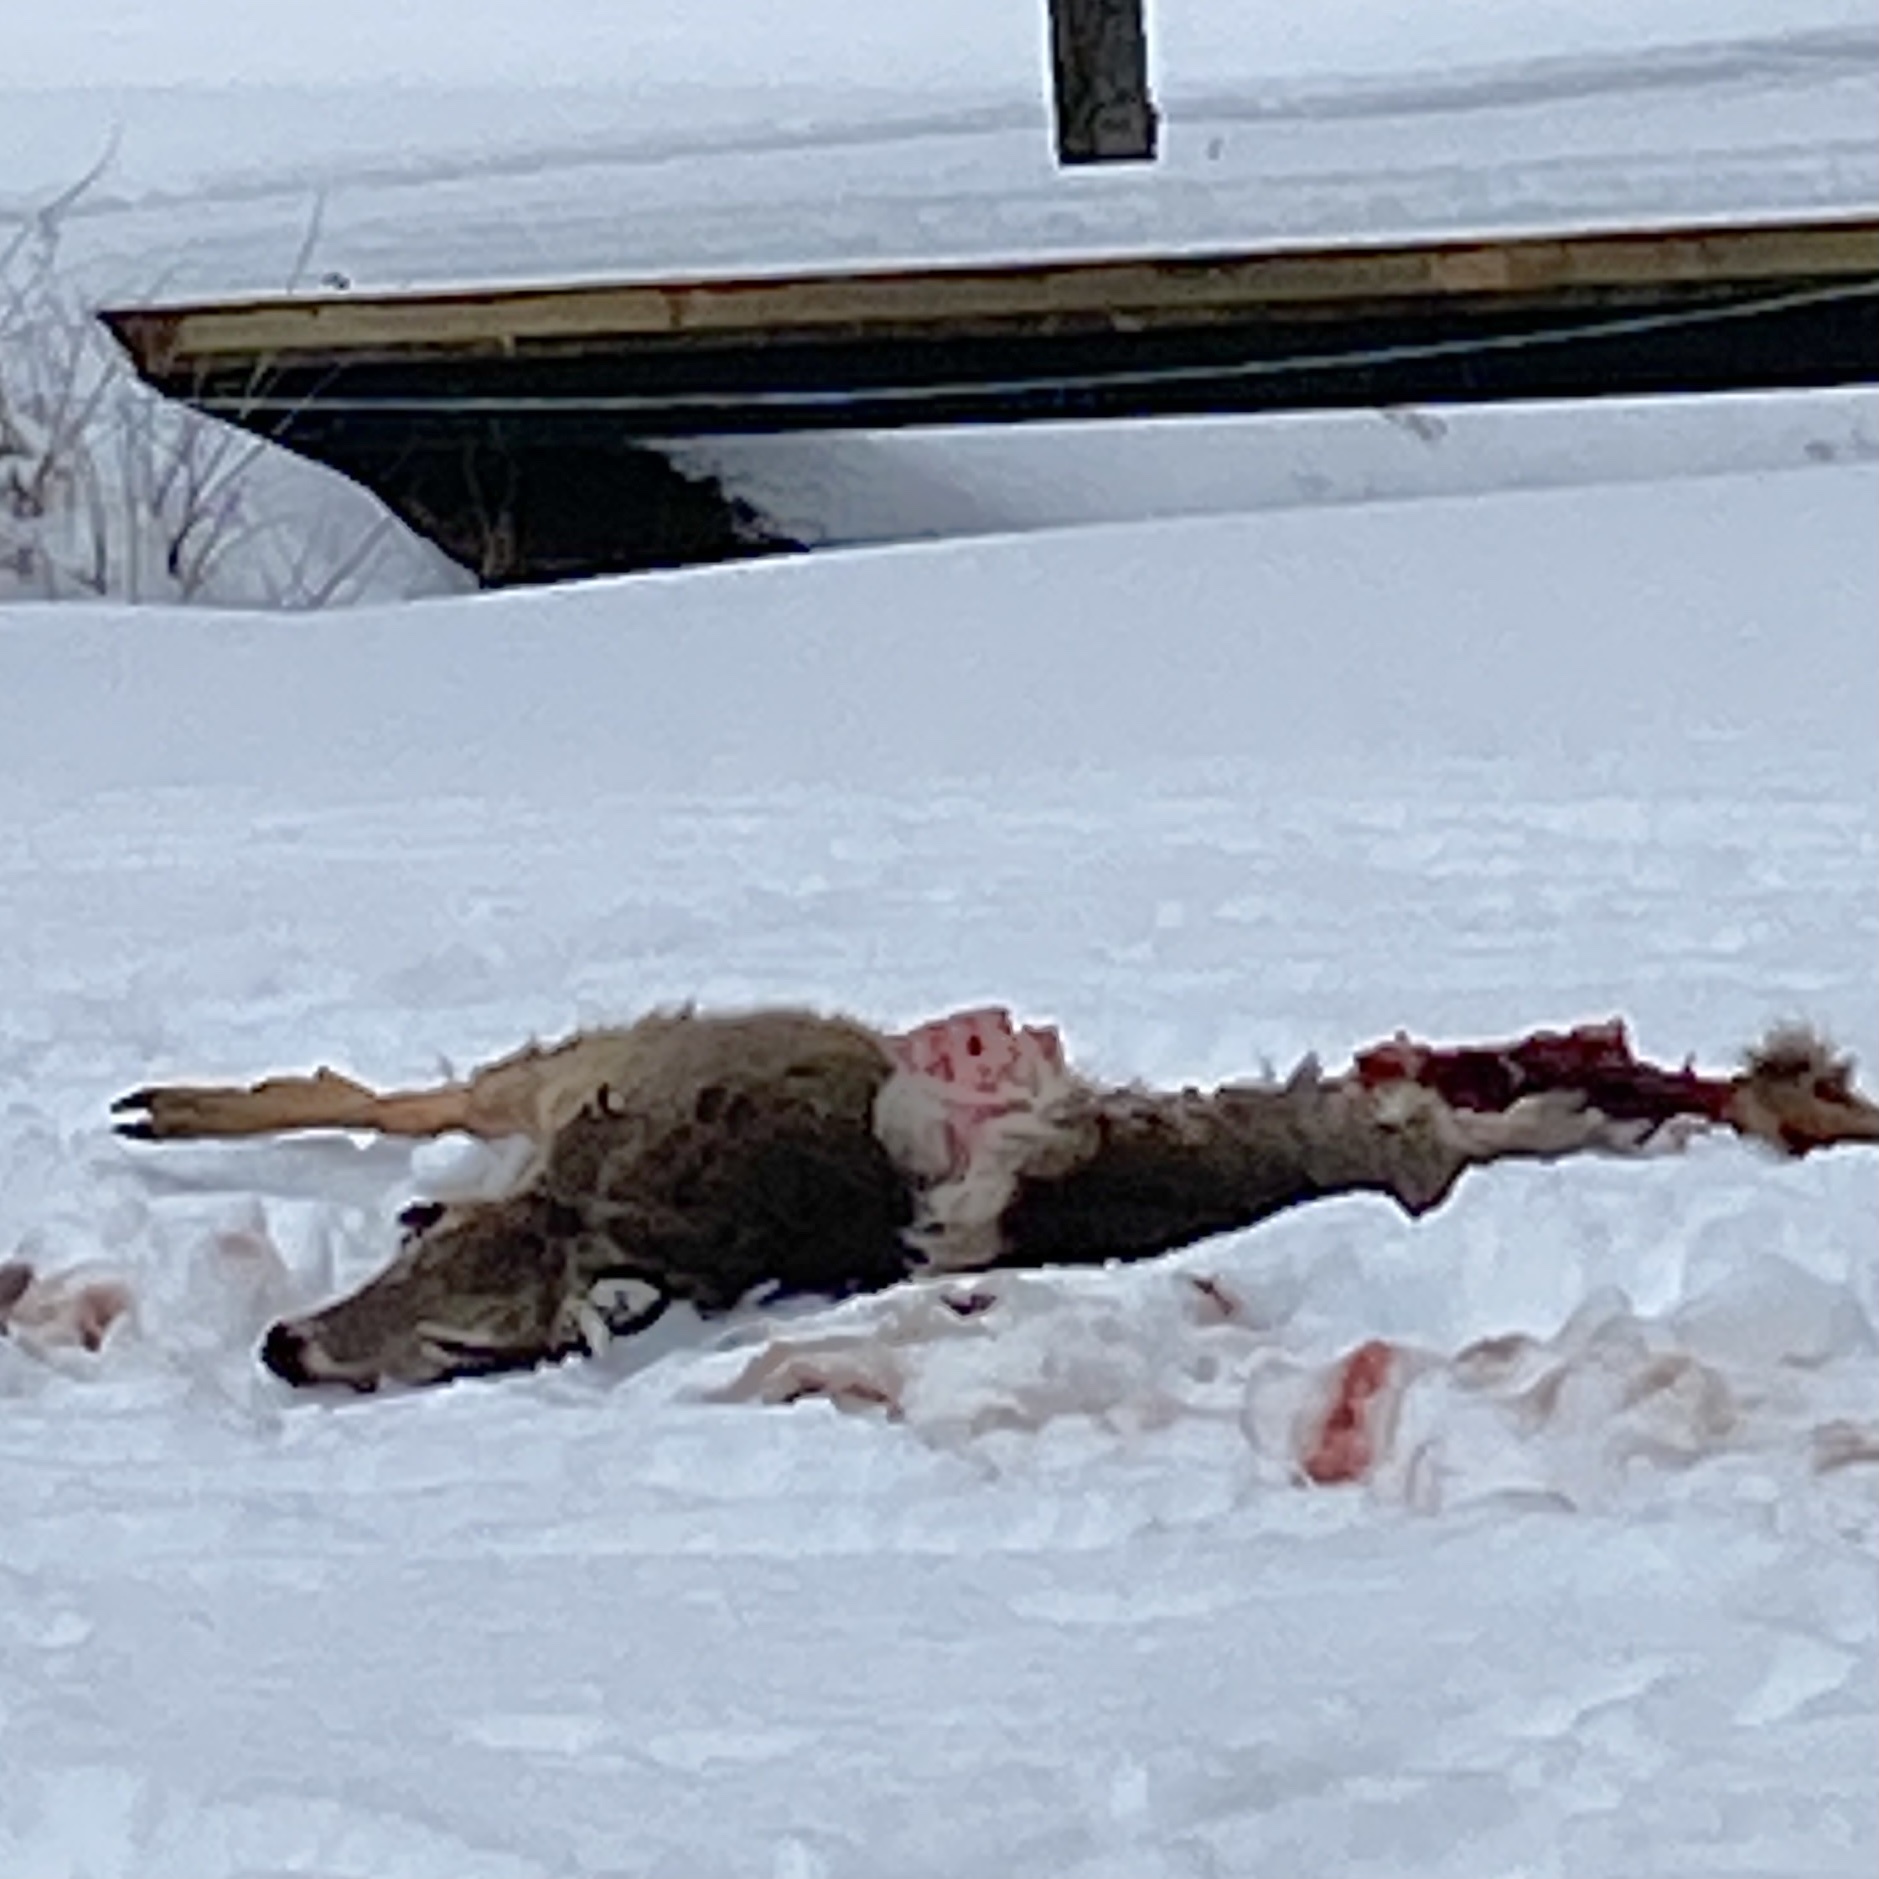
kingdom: Animalia
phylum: Chordata
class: Mammalia
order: Artiodactyla
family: Cervidae
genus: Odocoileus
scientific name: Odocoileus virginianus
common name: White-tailed deer
